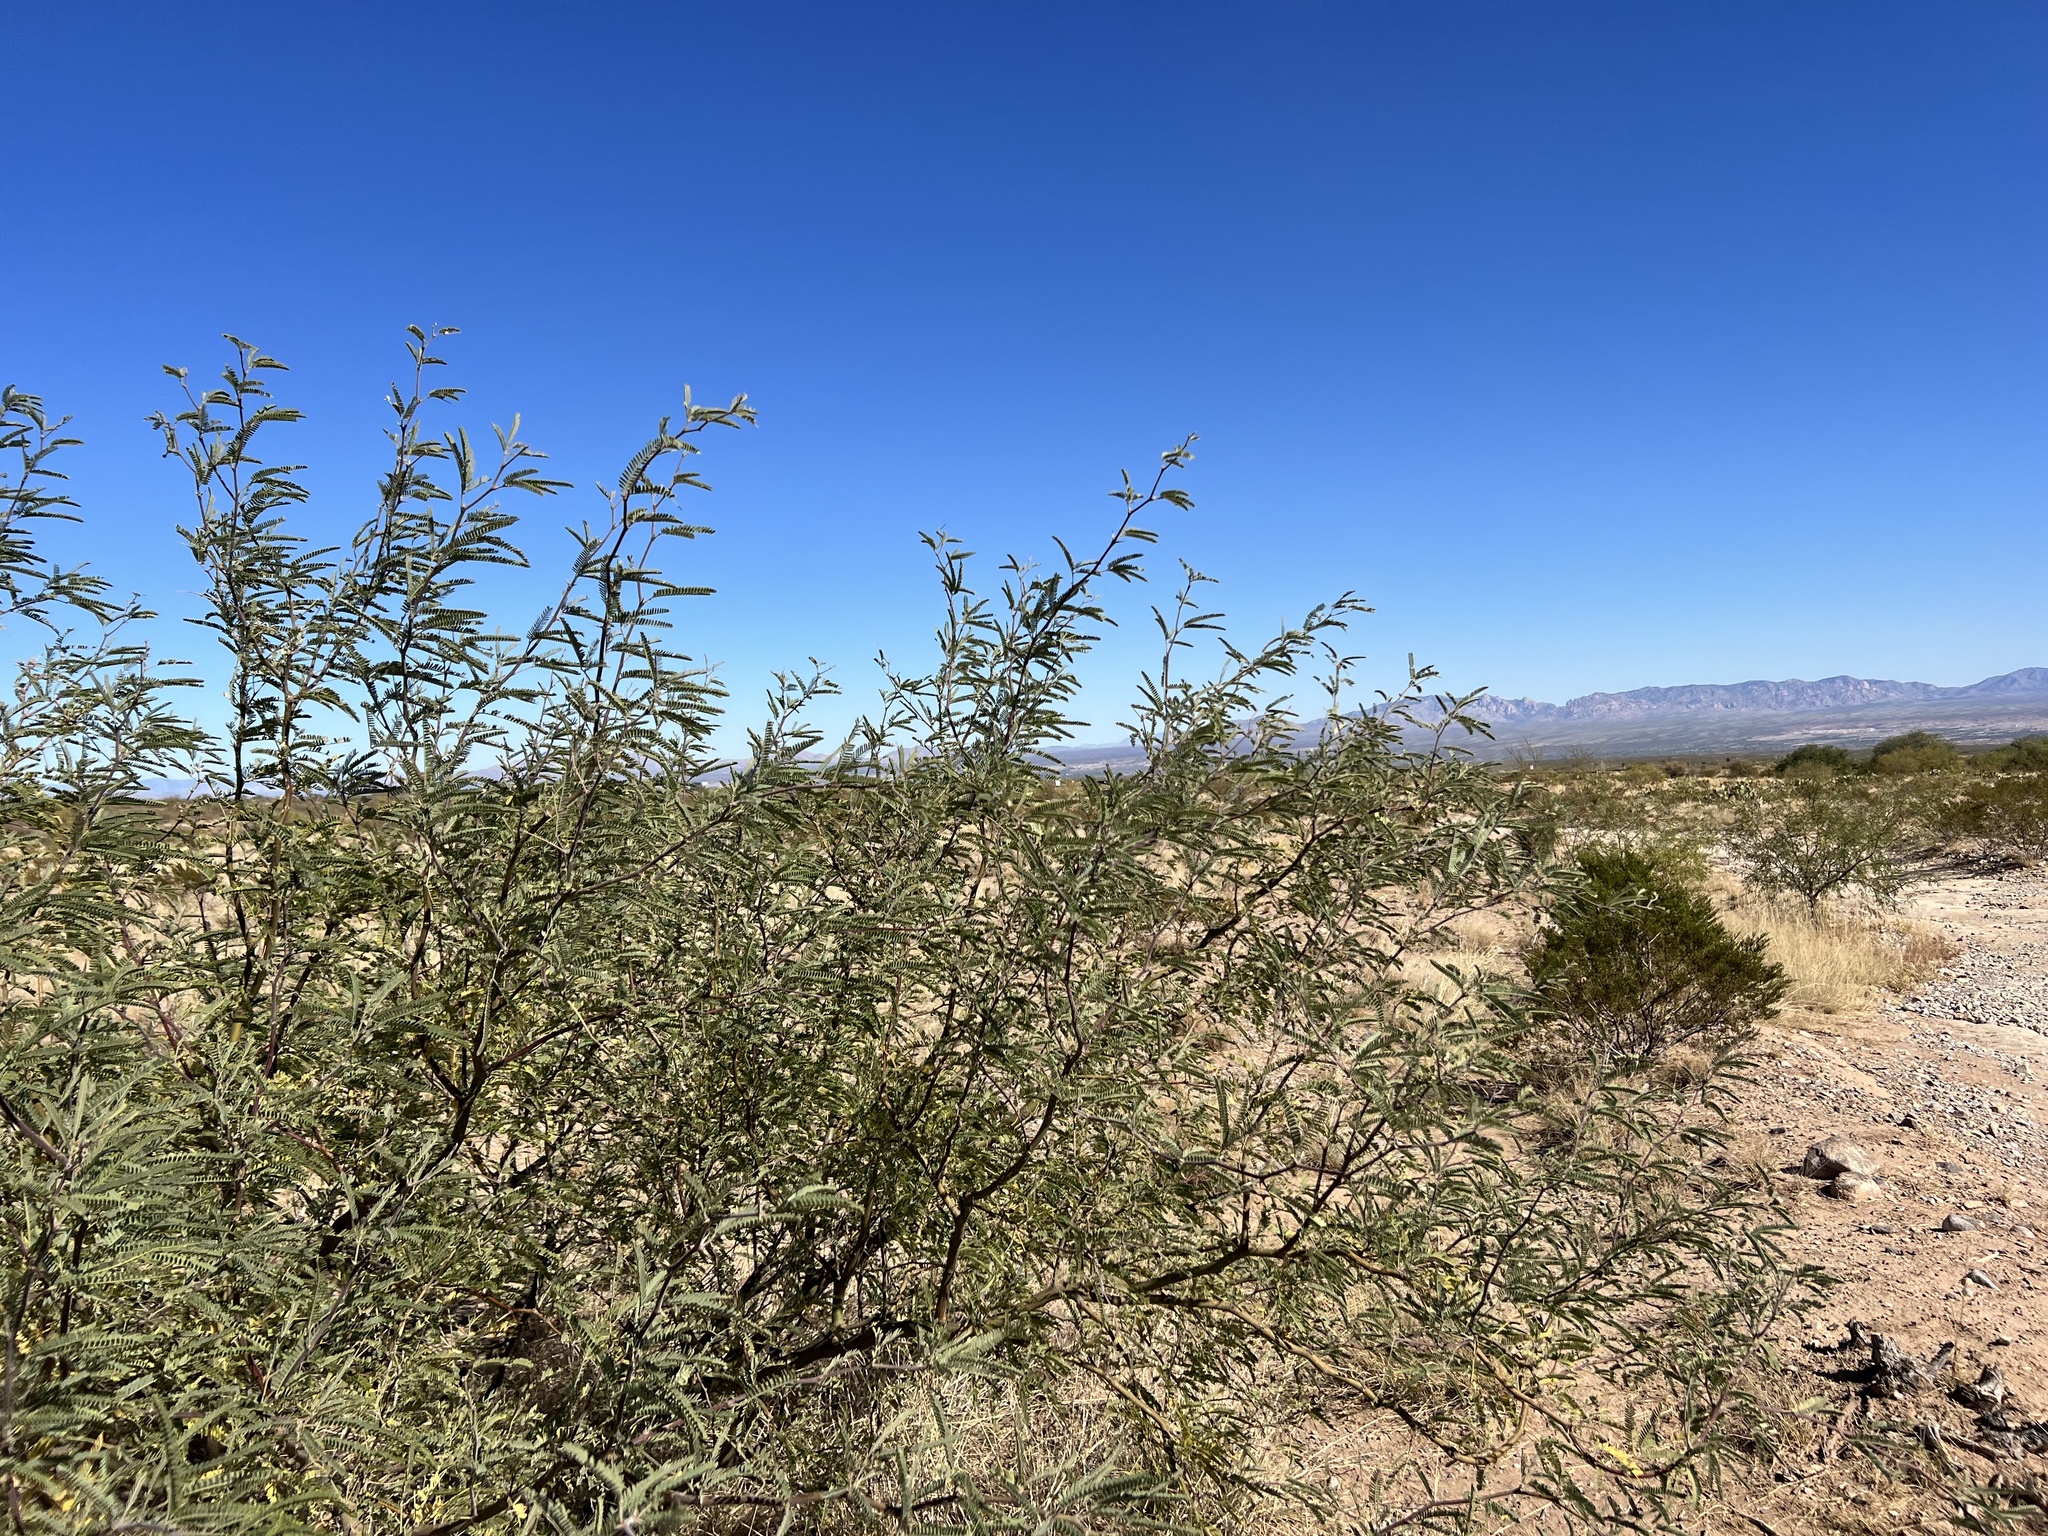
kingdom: Plantae
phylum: Tracheophyta
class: Magnoliopsida
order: Fabales
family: Fabaceae
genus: Prosopis
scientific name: Prosopis velutina
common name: Velvet mesquite
